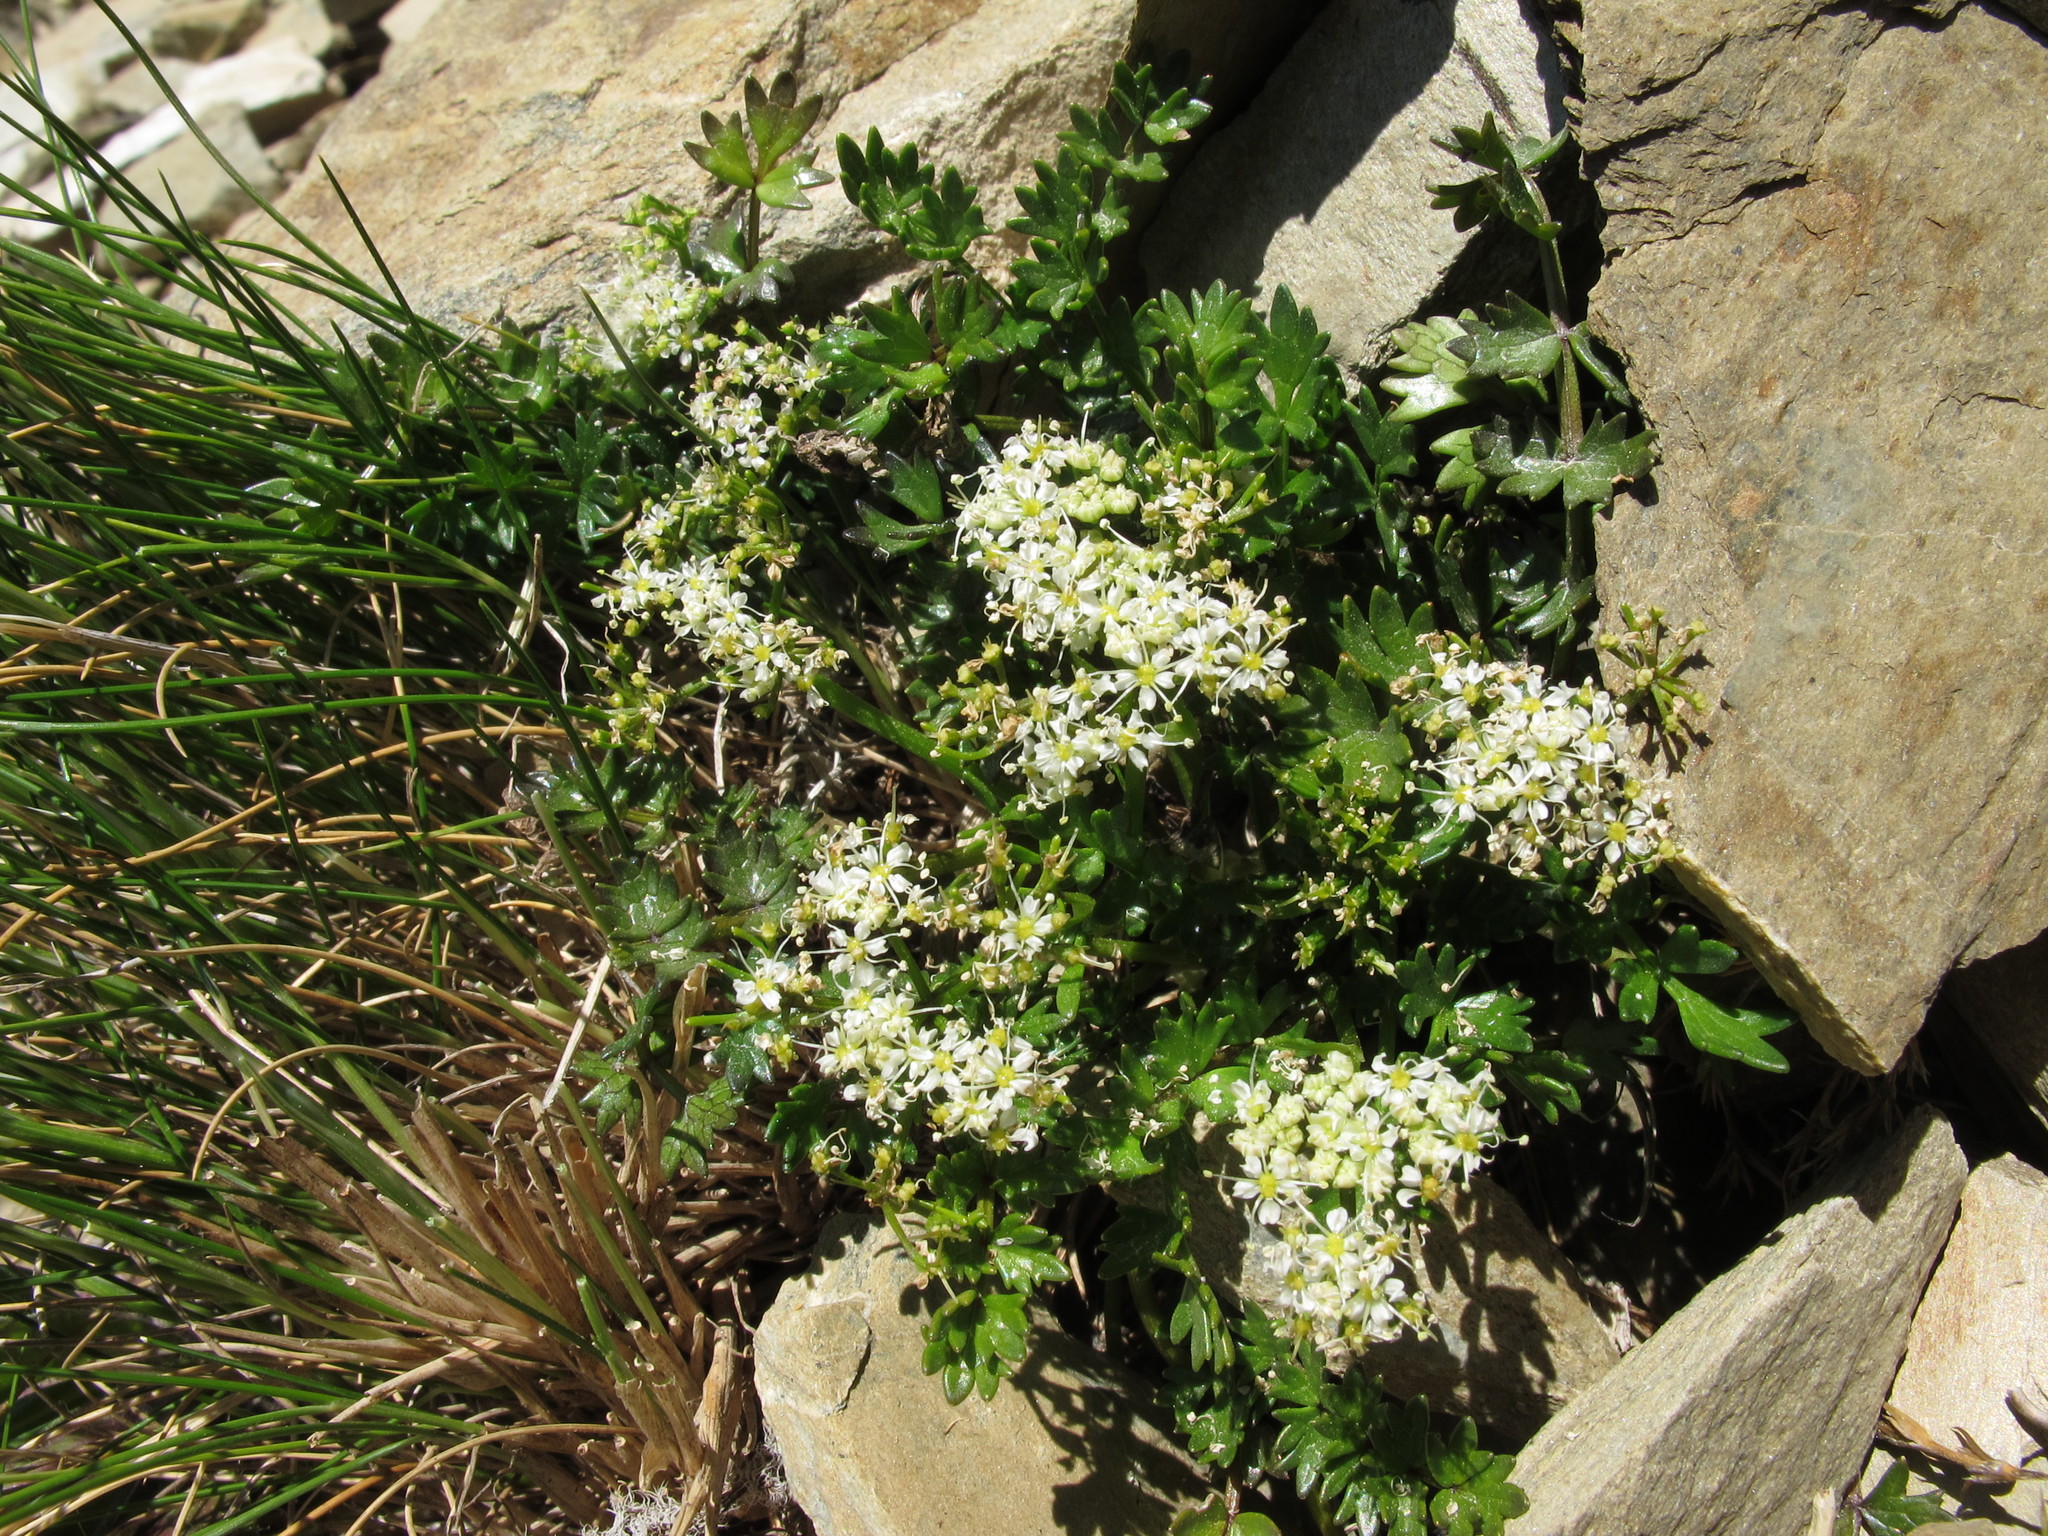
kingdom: Plantae
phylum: Tracheophyta
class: Magnoliopsida
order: Apiales
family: Apiaceae
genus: Gingidia
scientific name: Gingidia decipiens
